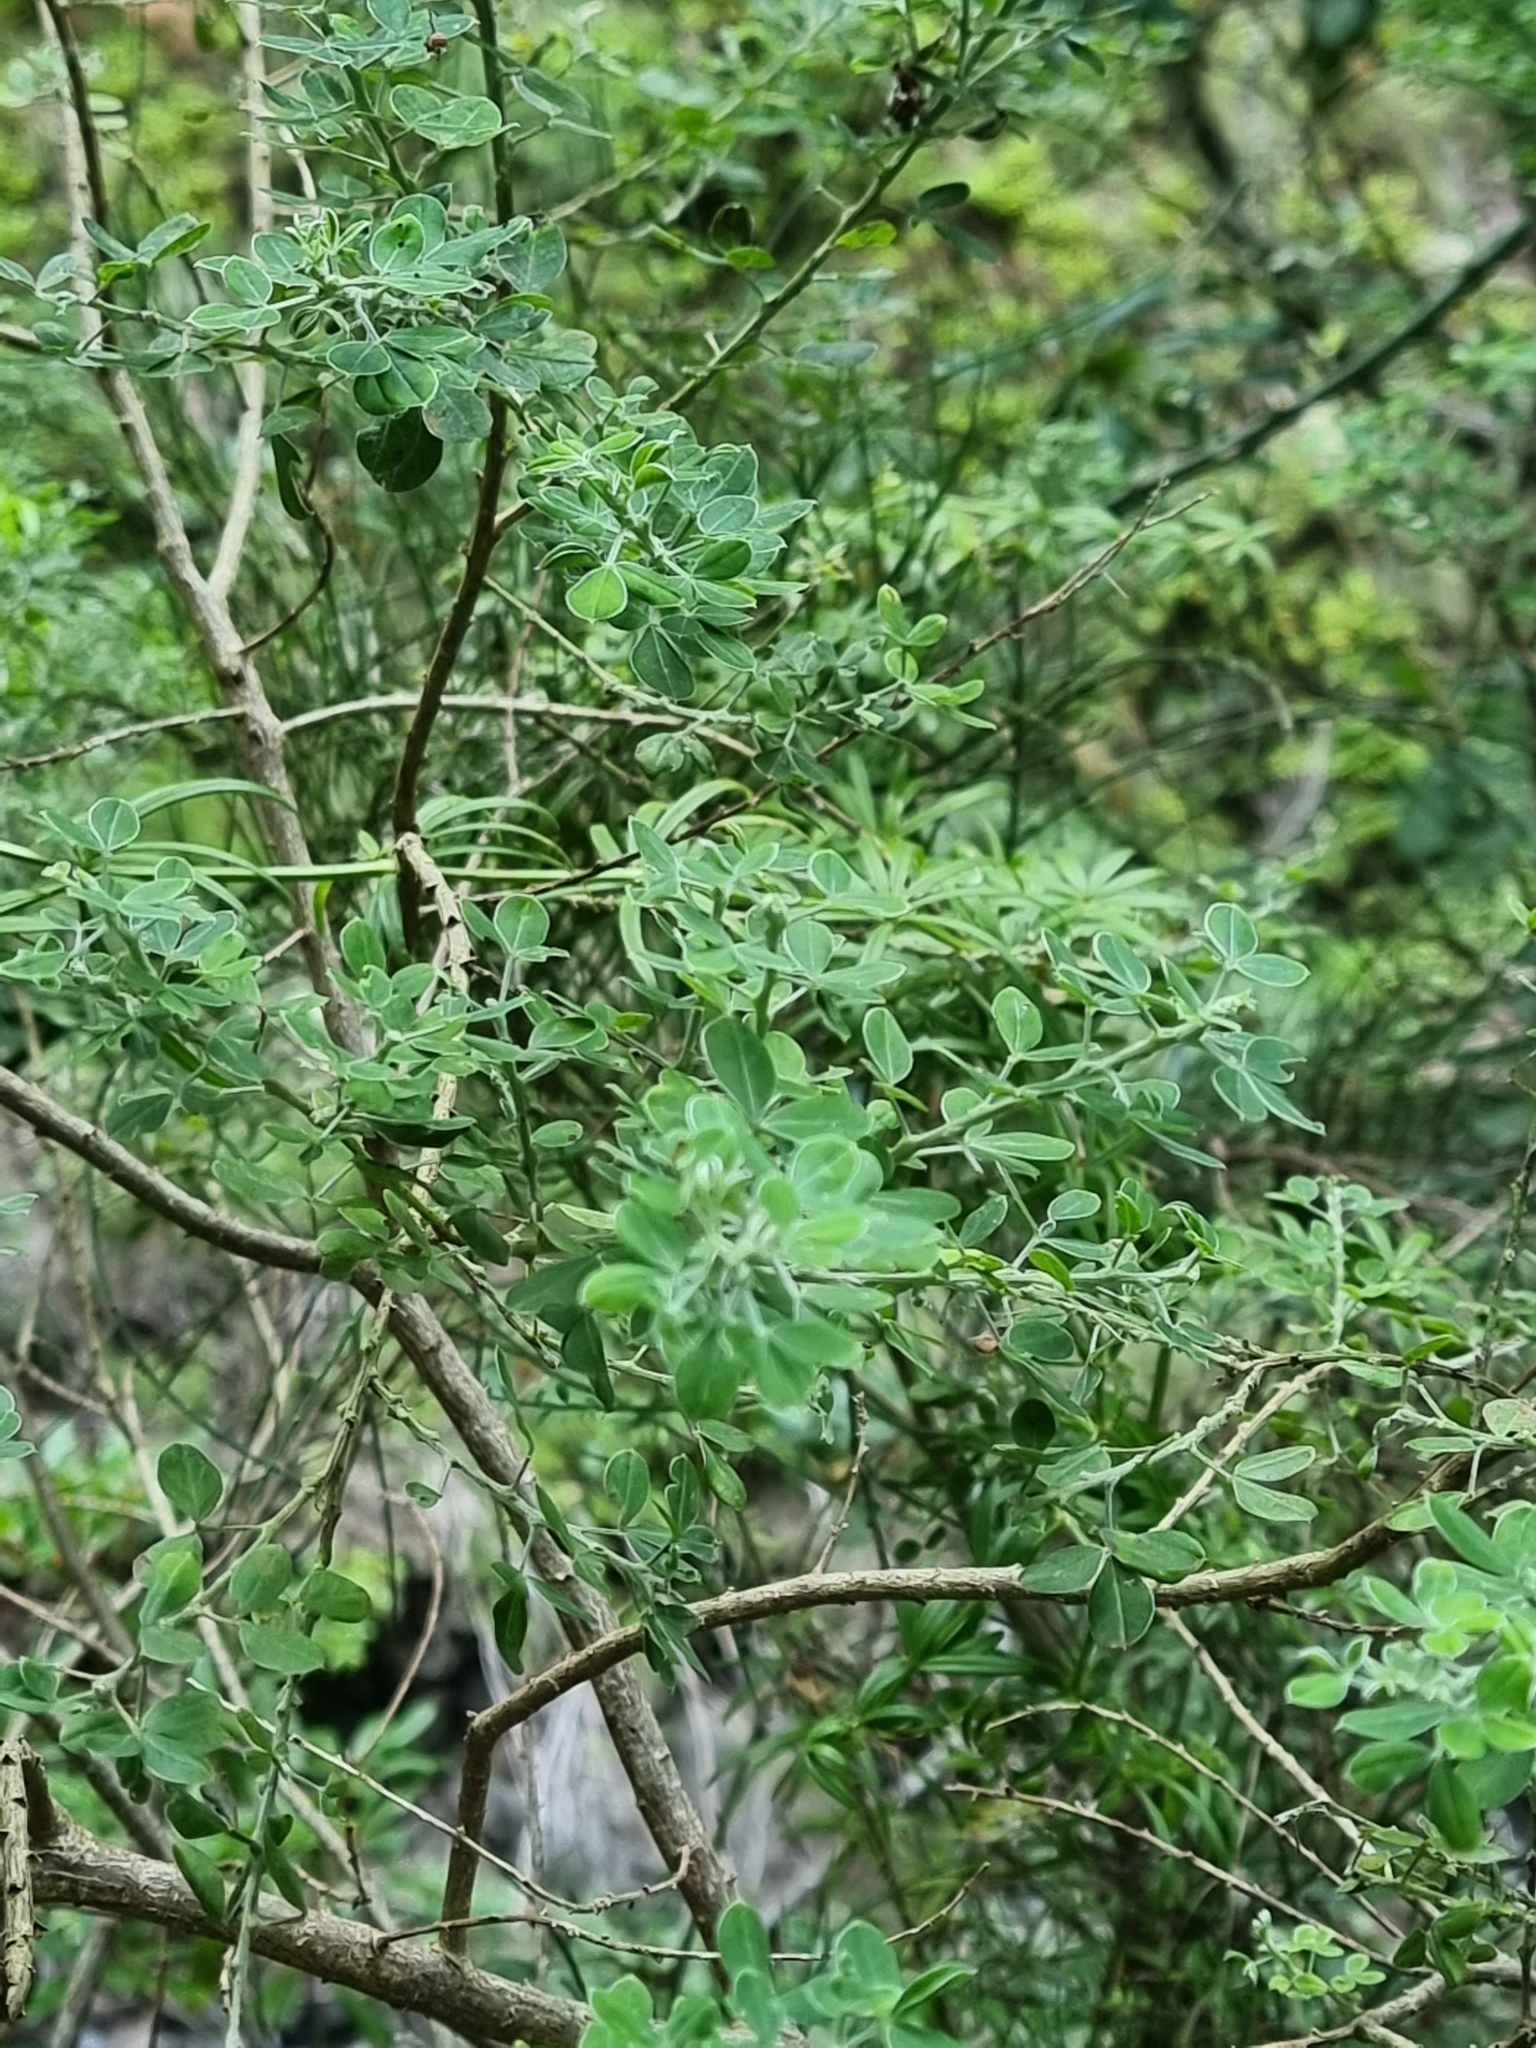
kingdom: Plantae
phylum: Tracheophyta
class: Magnoliopsida
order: Fabales
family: Fabaceae
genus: Genista
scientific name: Genista maderensis
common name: Madeira dyer's greenweed
